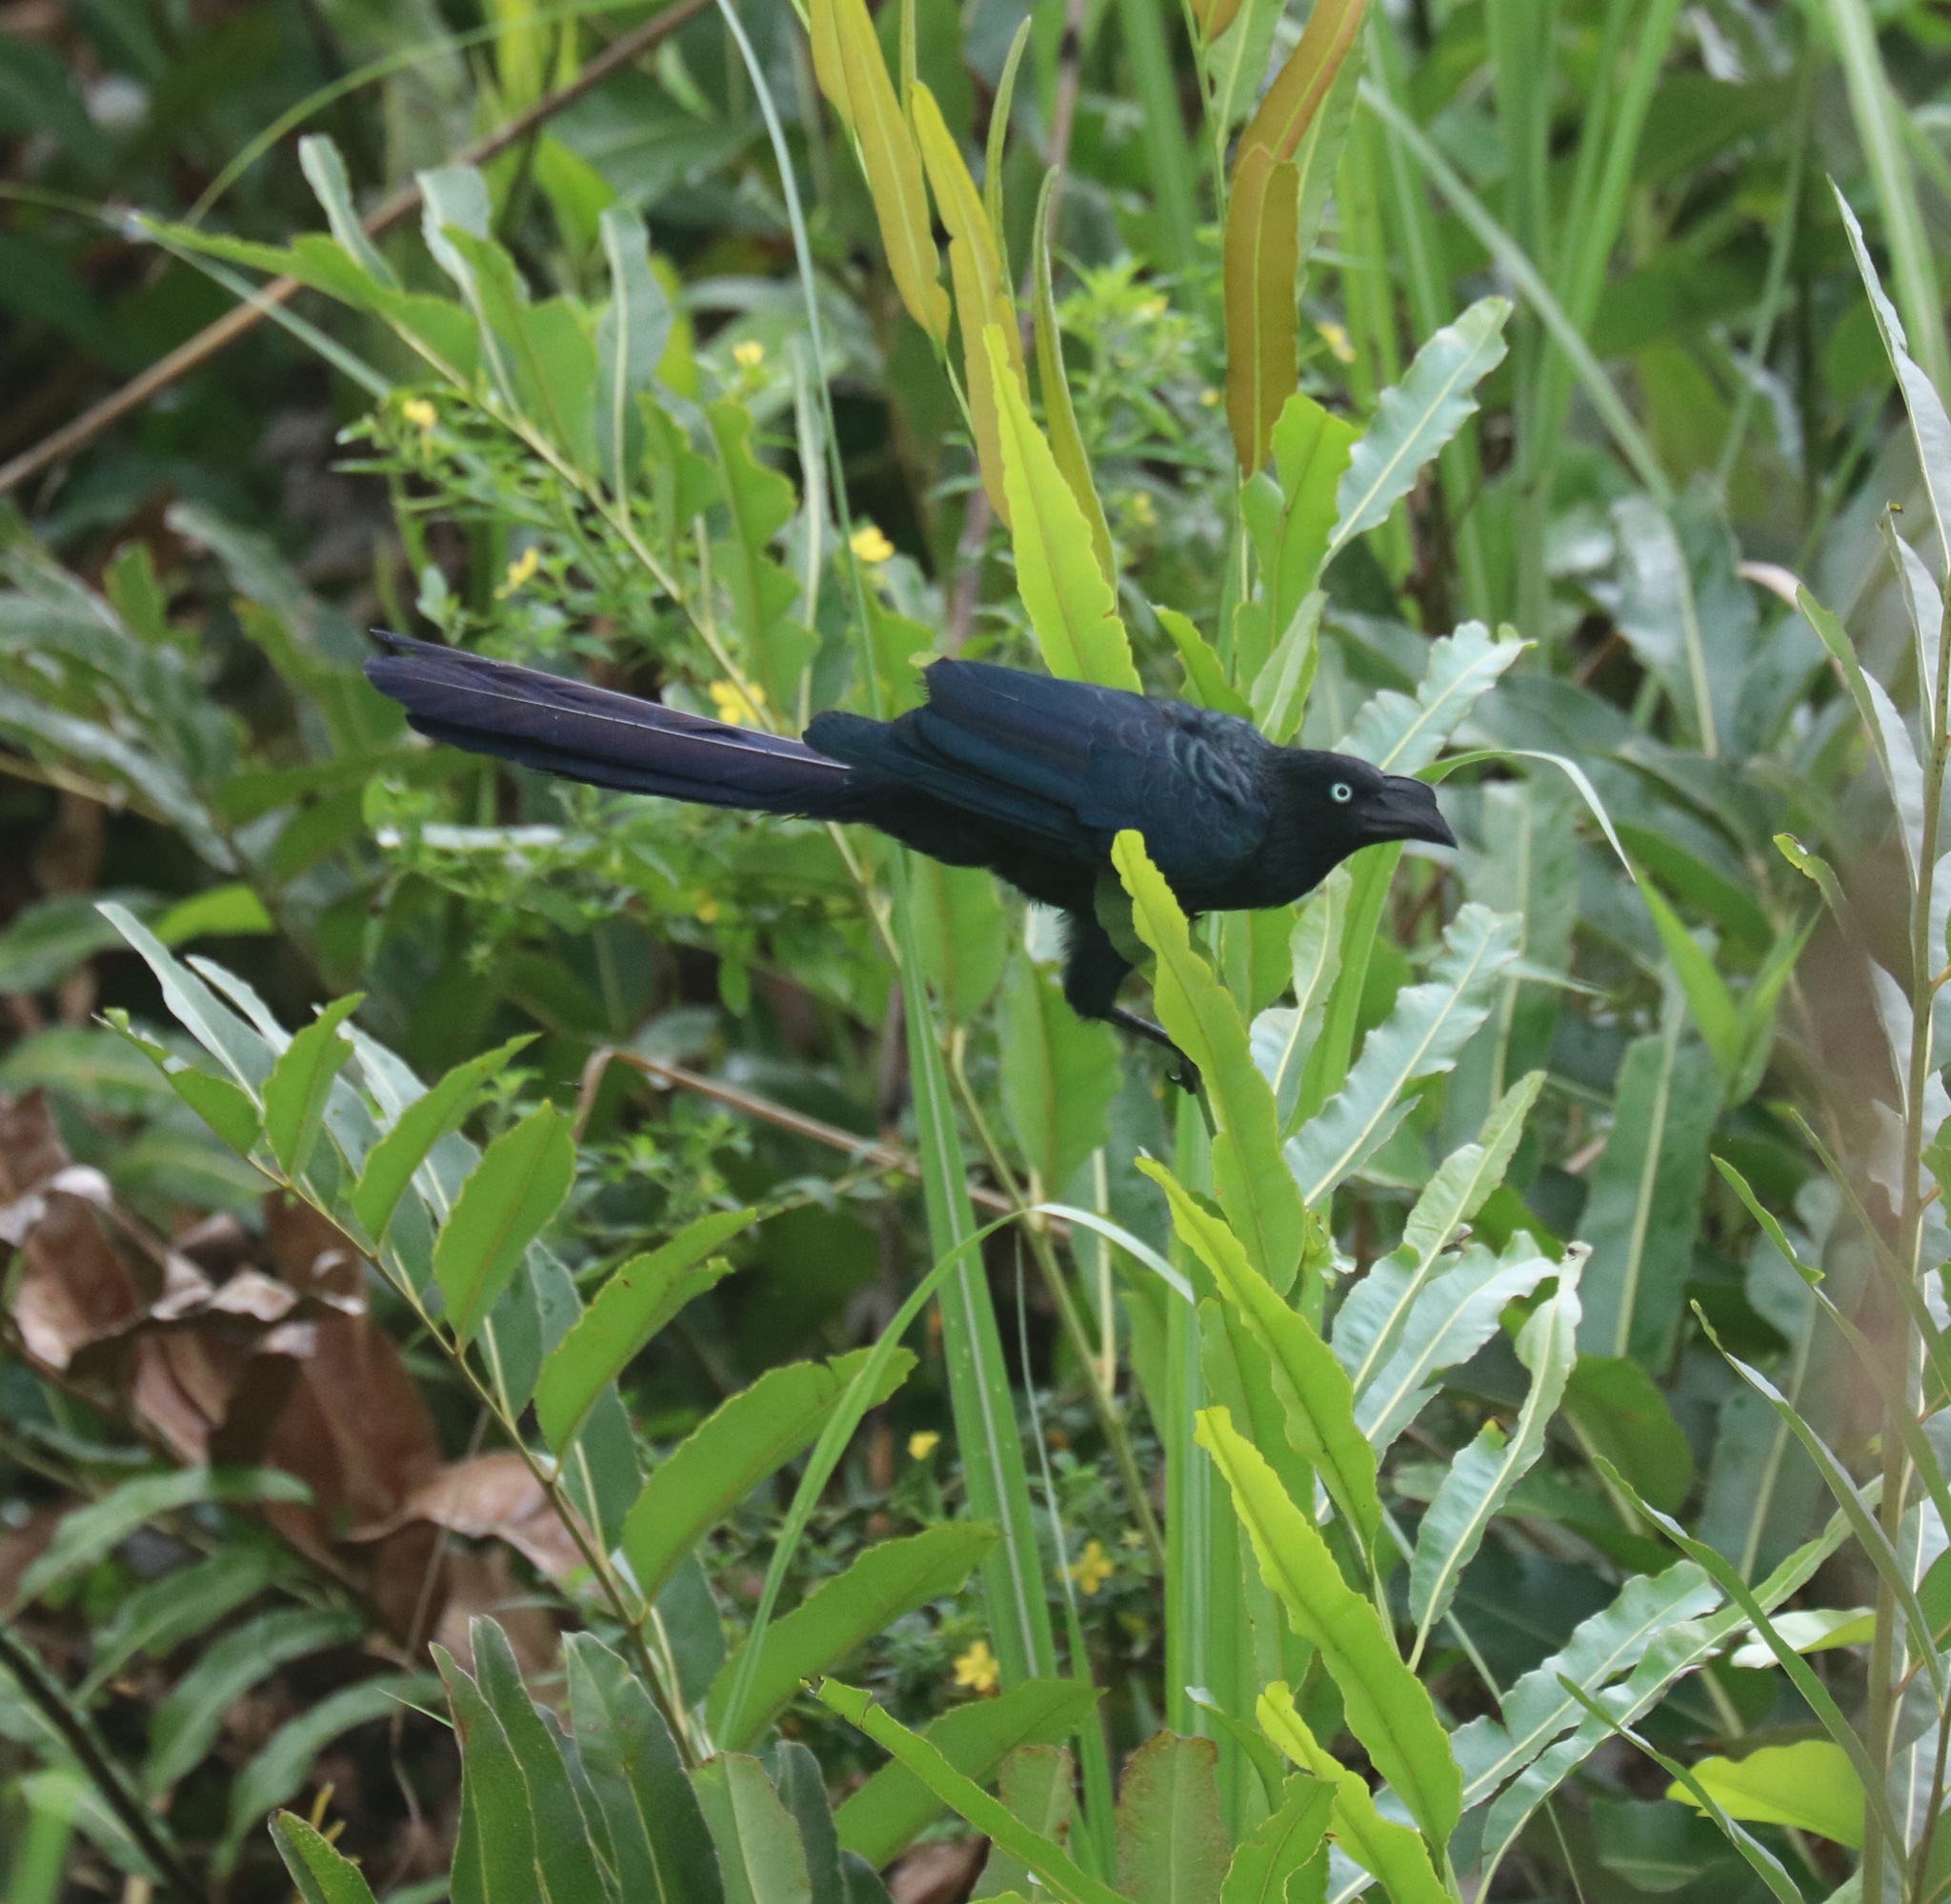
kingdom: Animalia
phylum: Chordata
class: Aves
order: Cuculiformes
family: Cuculidae
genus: Crotophaga
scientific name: Crotophaga major
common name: Greater ani
